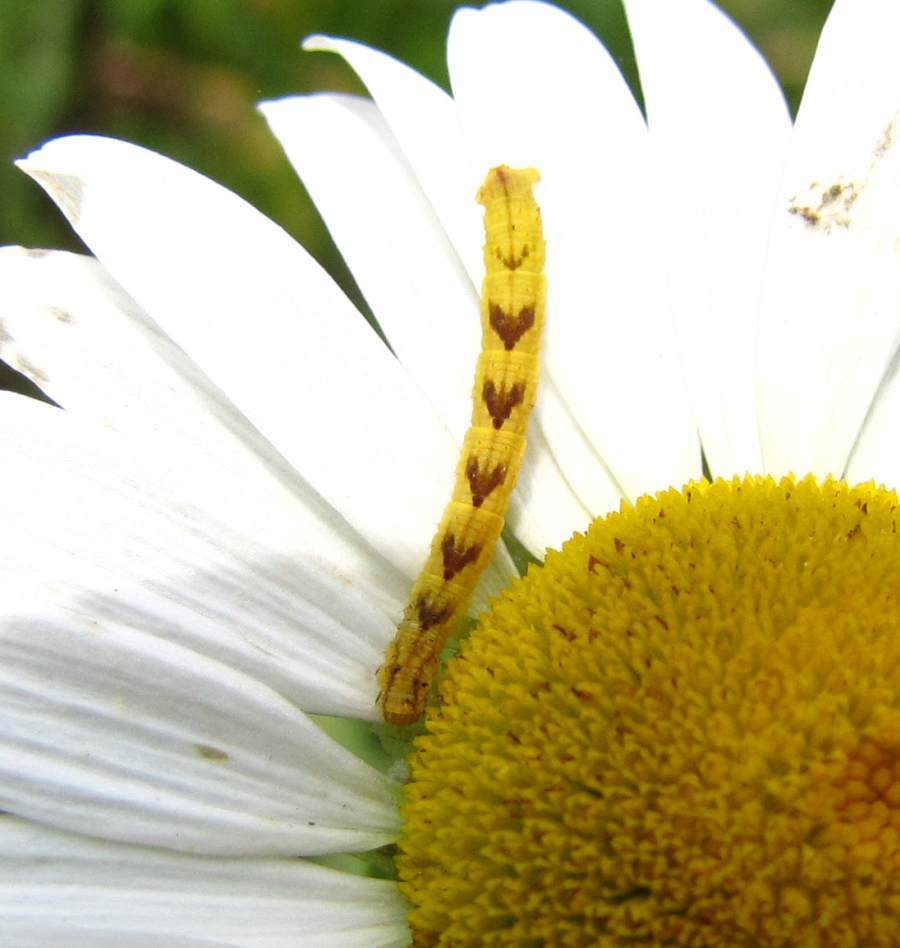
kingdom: Animalia
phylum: Arthropoda
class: Insecta
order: Lepidoptera
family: Geometridae
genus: Eupithecia
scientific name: Eupithecia miserulata
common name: Common eupithecia
